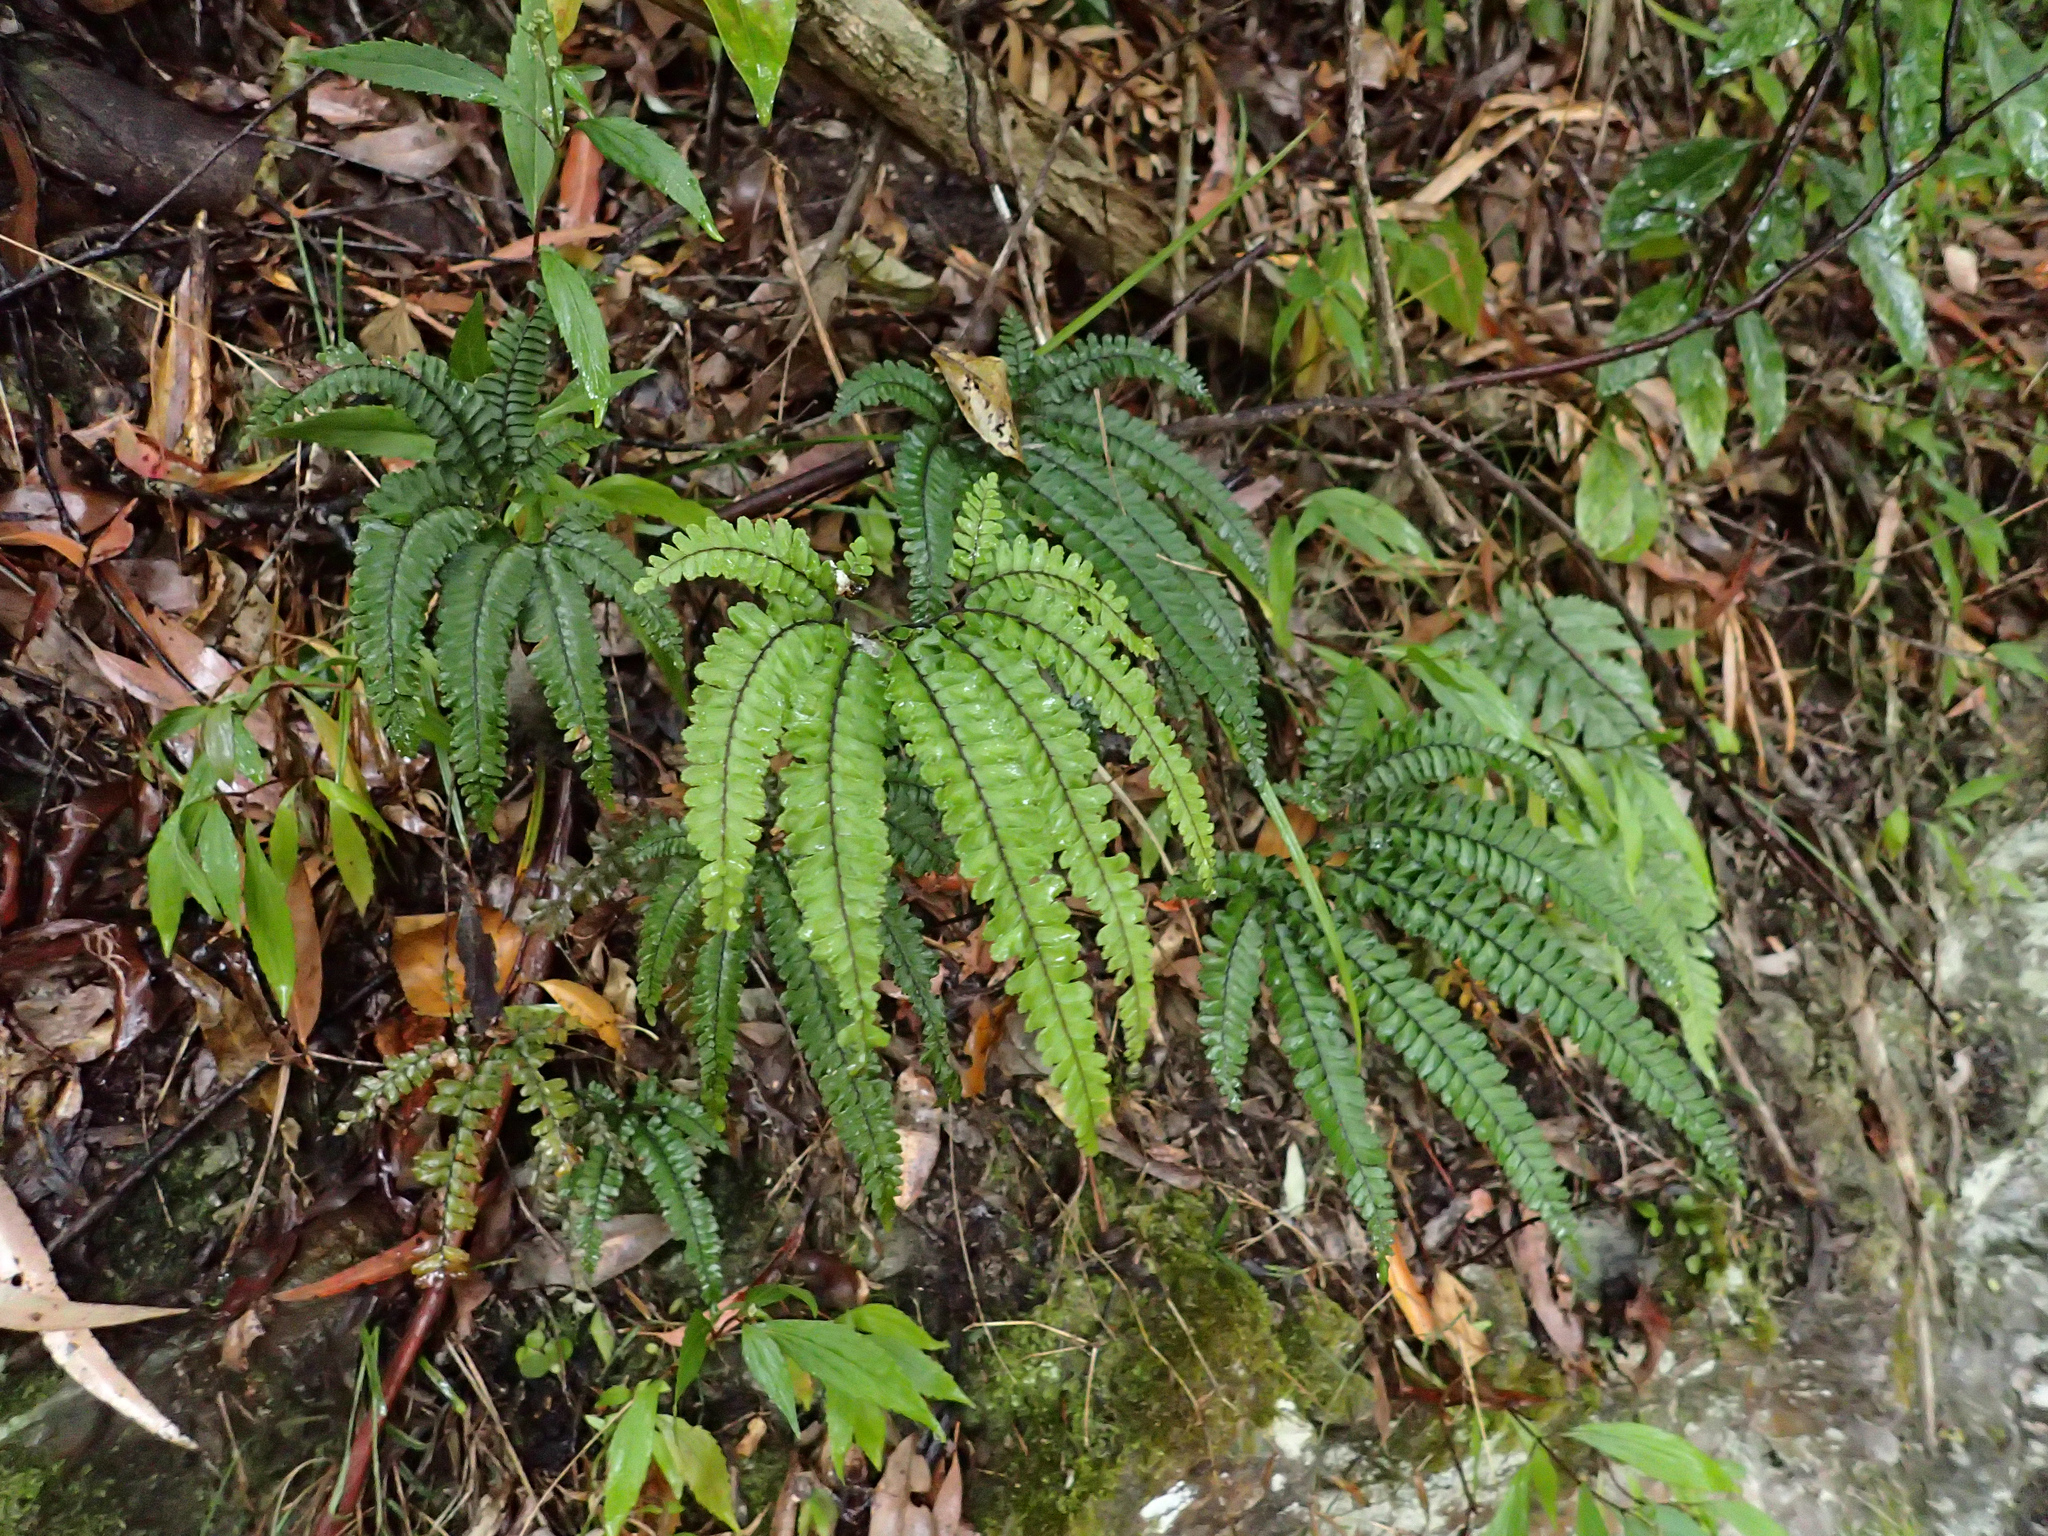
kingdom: Plantae
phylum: Tracheophyta
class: Polypodiopsida
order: Polypodiales
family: Pteridaceae
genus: Adiantum
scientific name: Adiantum hispidulum
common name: Rough maidenhair
